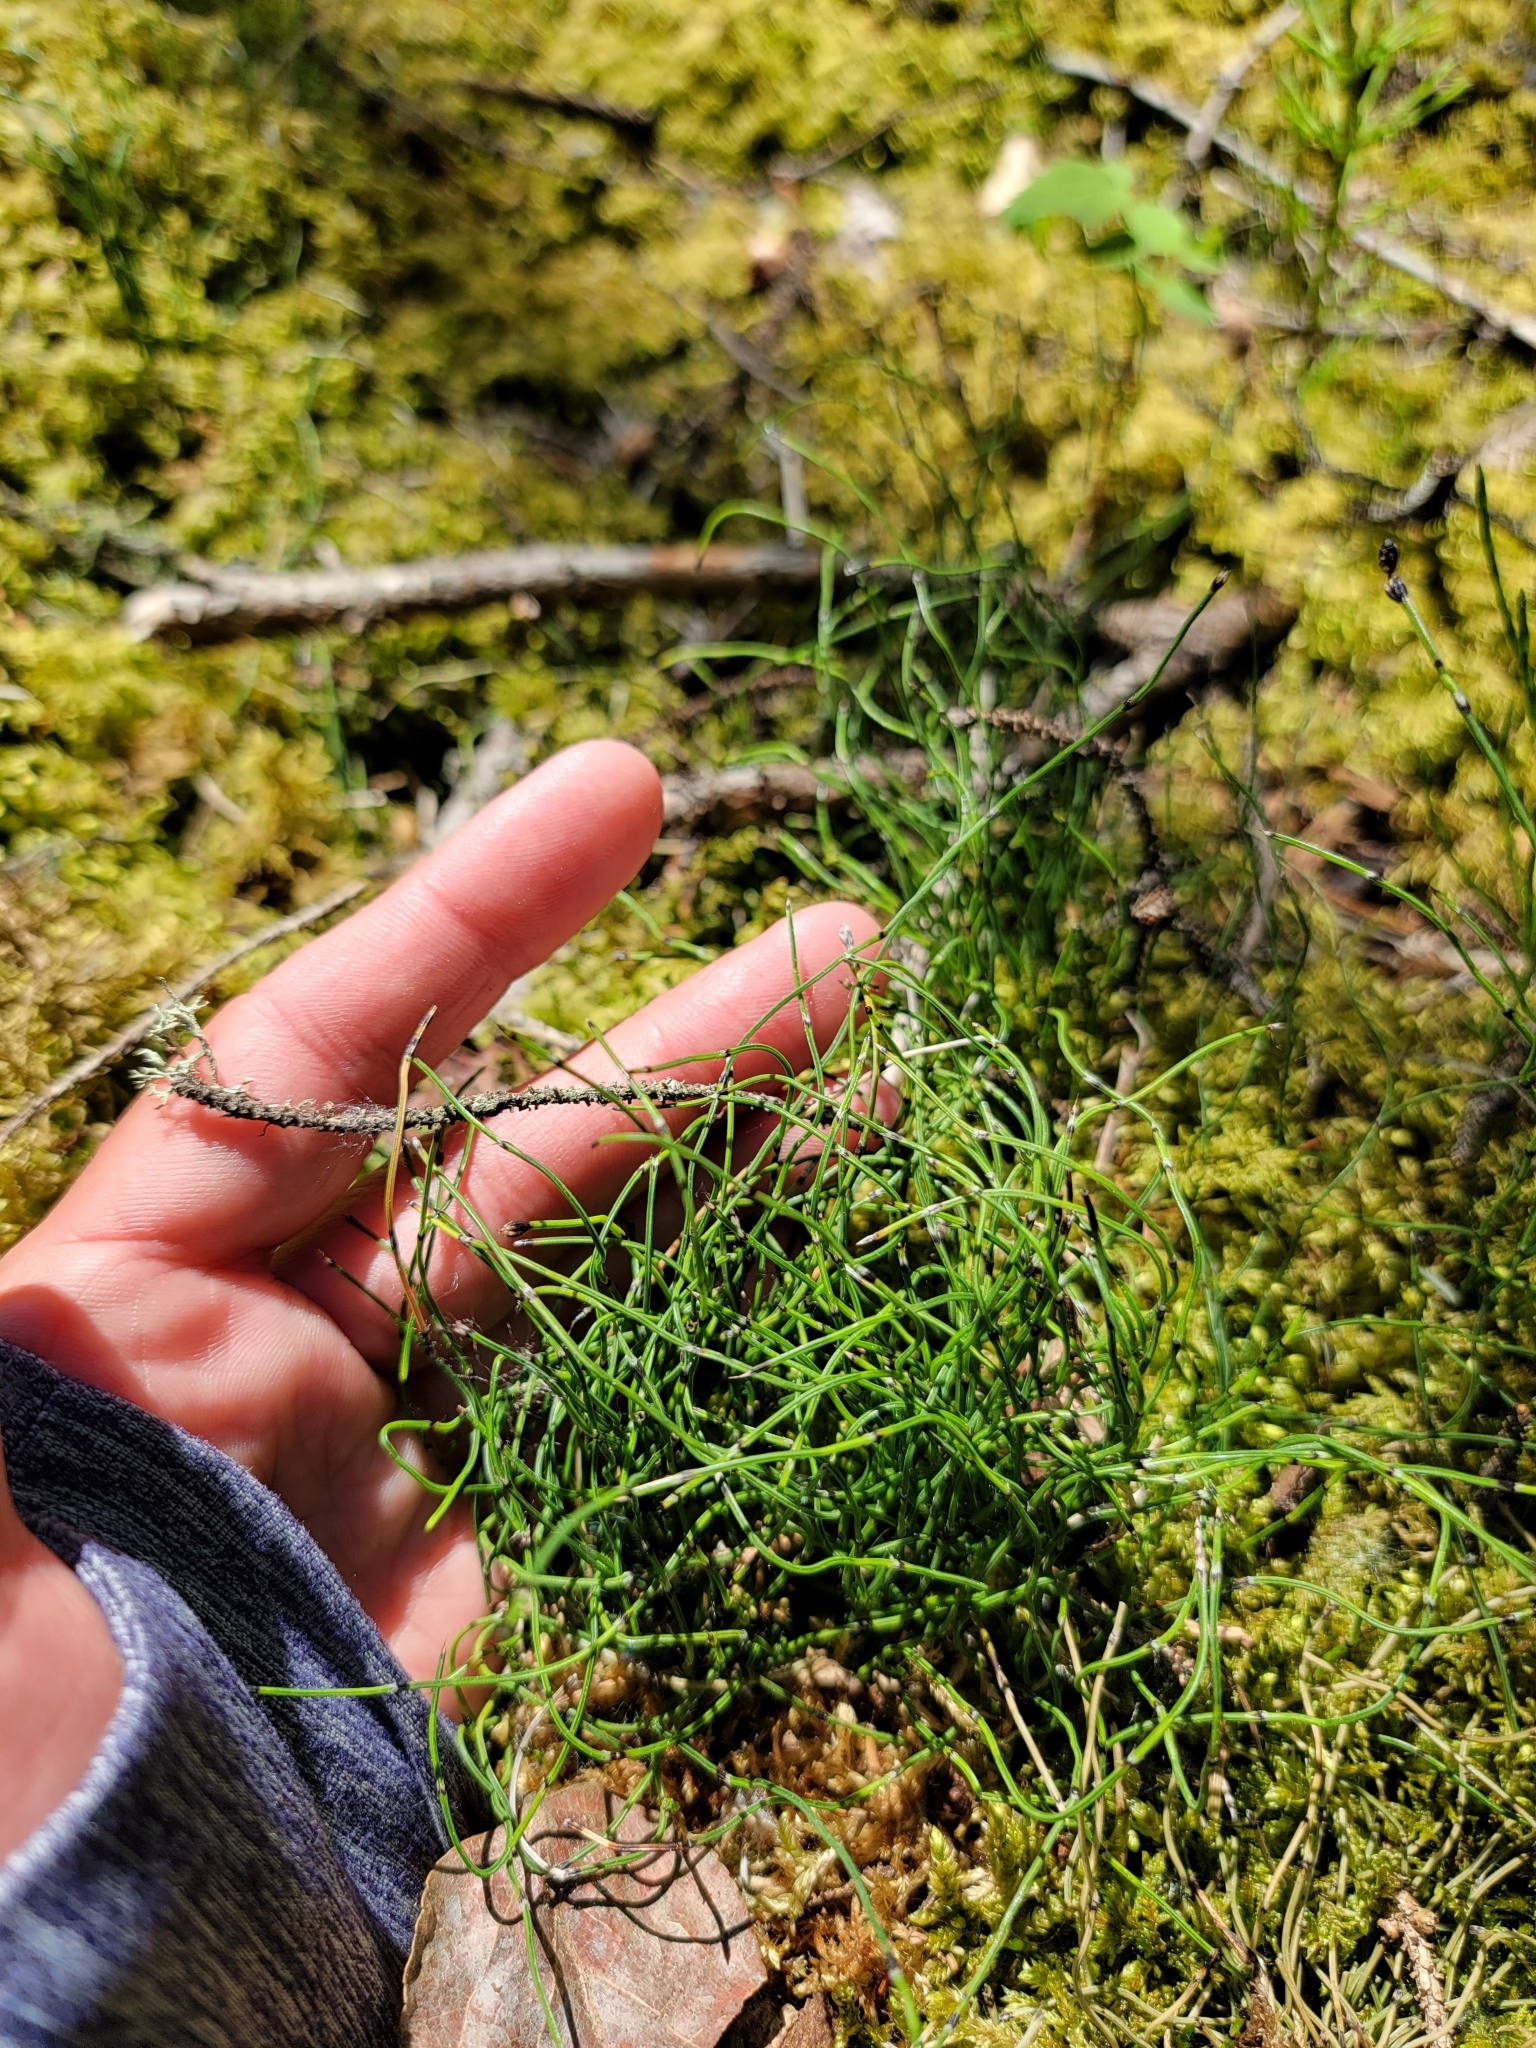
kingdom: Plantae
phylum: Tracheophyta
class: Polypodiopsida
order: Equisetales
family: Equisetaceae
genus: Equisetum
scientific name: Equisetum scirpoides
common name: Delicate horsetail
